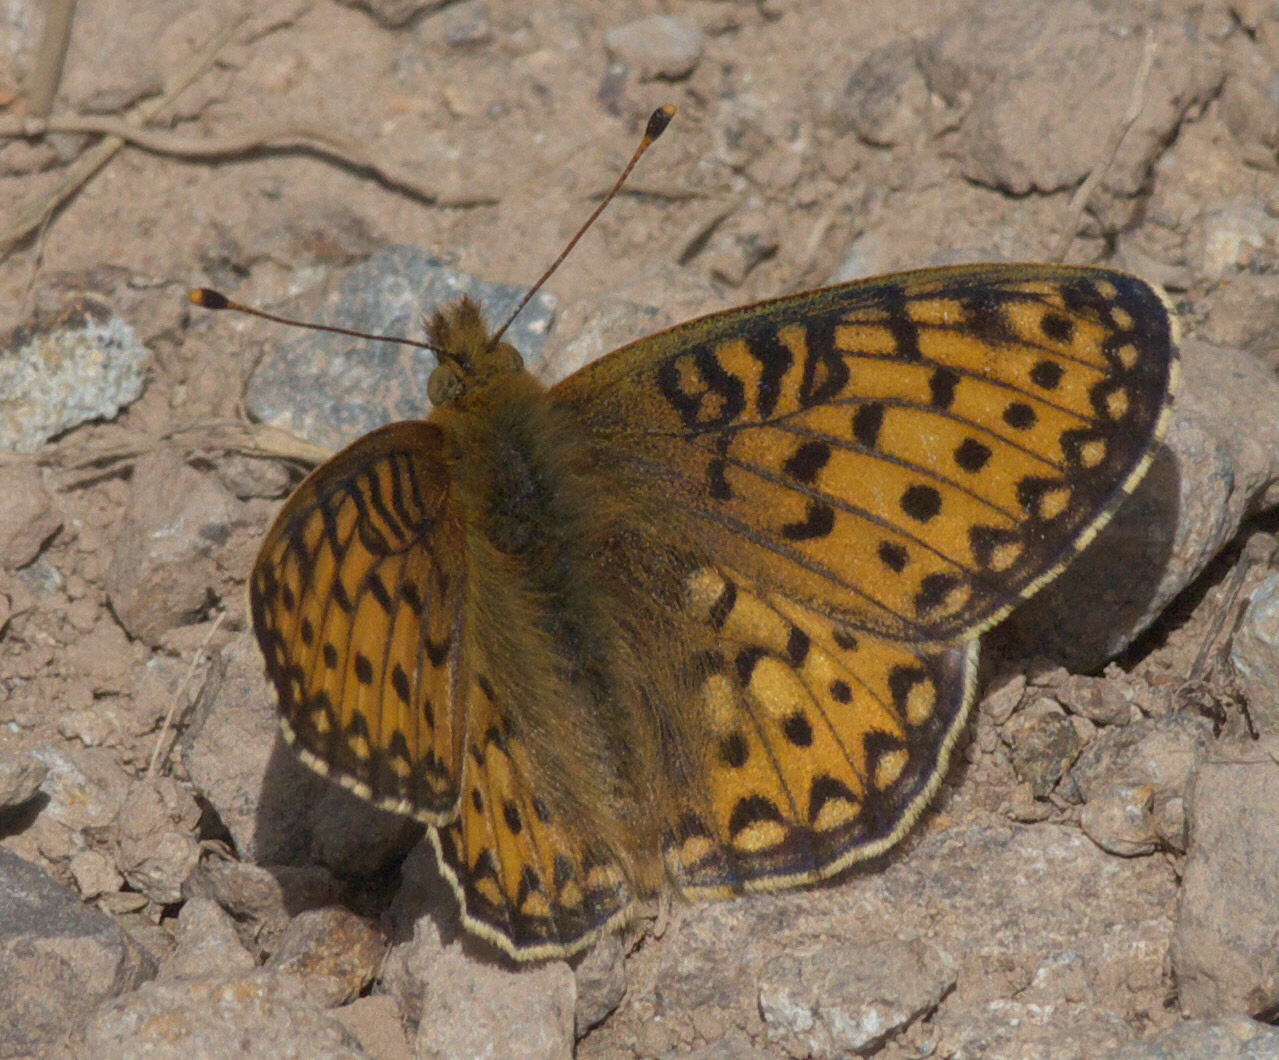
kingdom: Animalia
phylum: Arthropoda
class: Insecta
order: Lepidoptera
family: Nymphalidae
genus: Speyeria
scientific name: Speyeria mormonia
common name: Mormon fritillary
